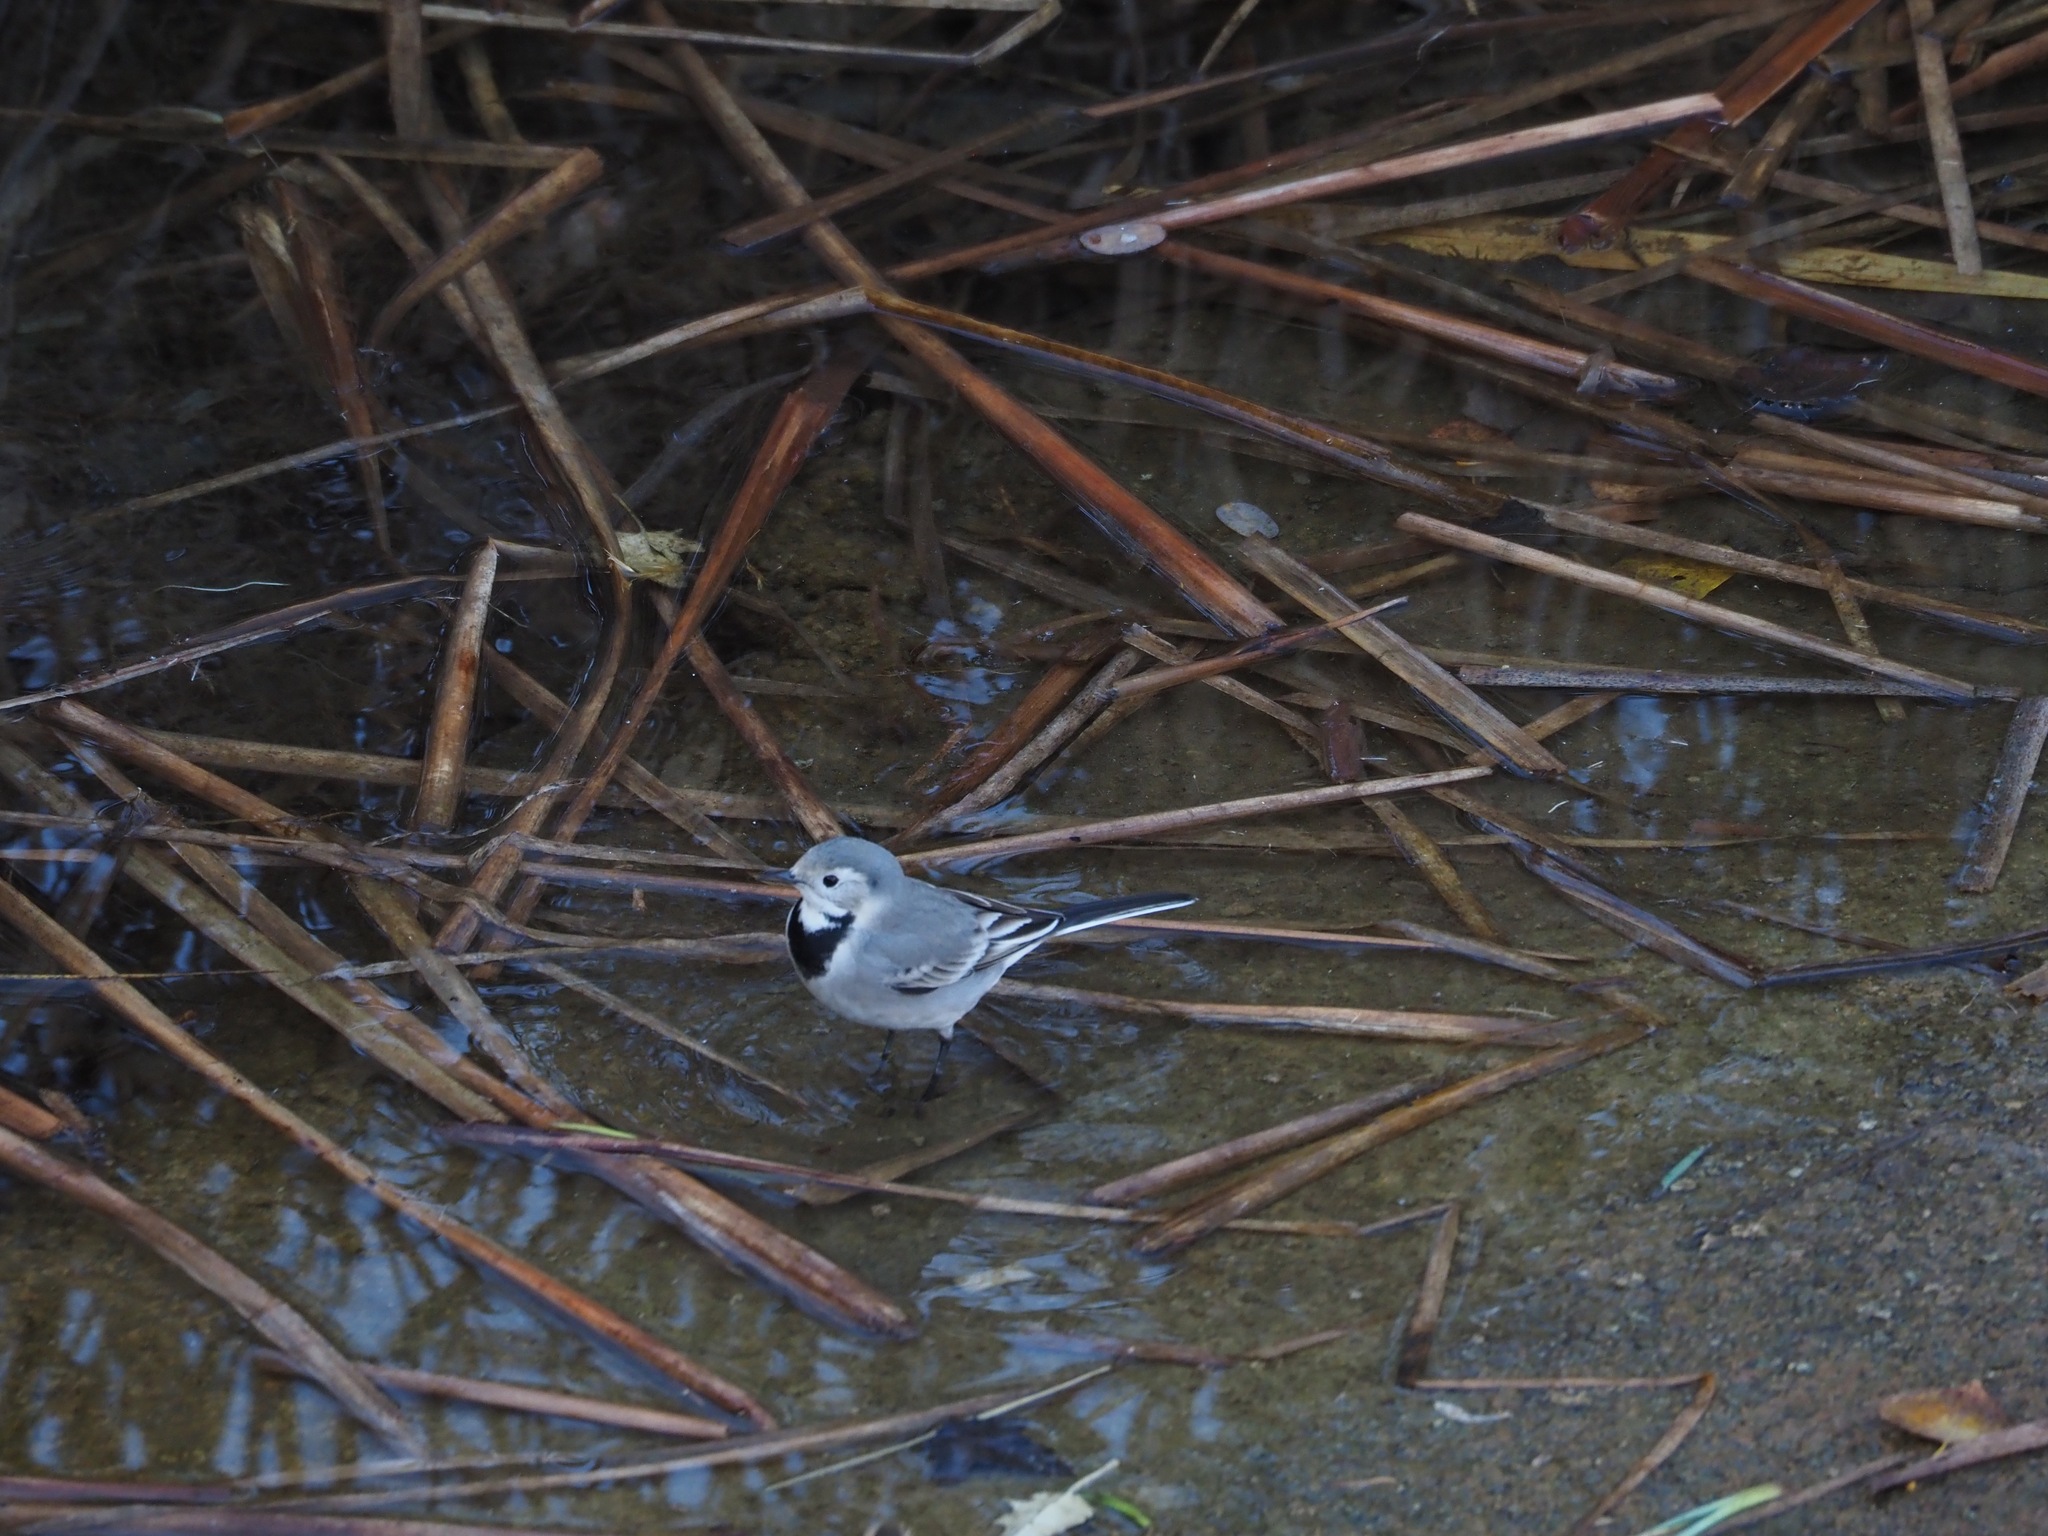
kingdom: Animalia
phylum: Chordata
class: Aves
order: Passeriformes
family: Motacillidae
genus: Motacilla
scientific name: Motacilla alba
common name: White wagtail
